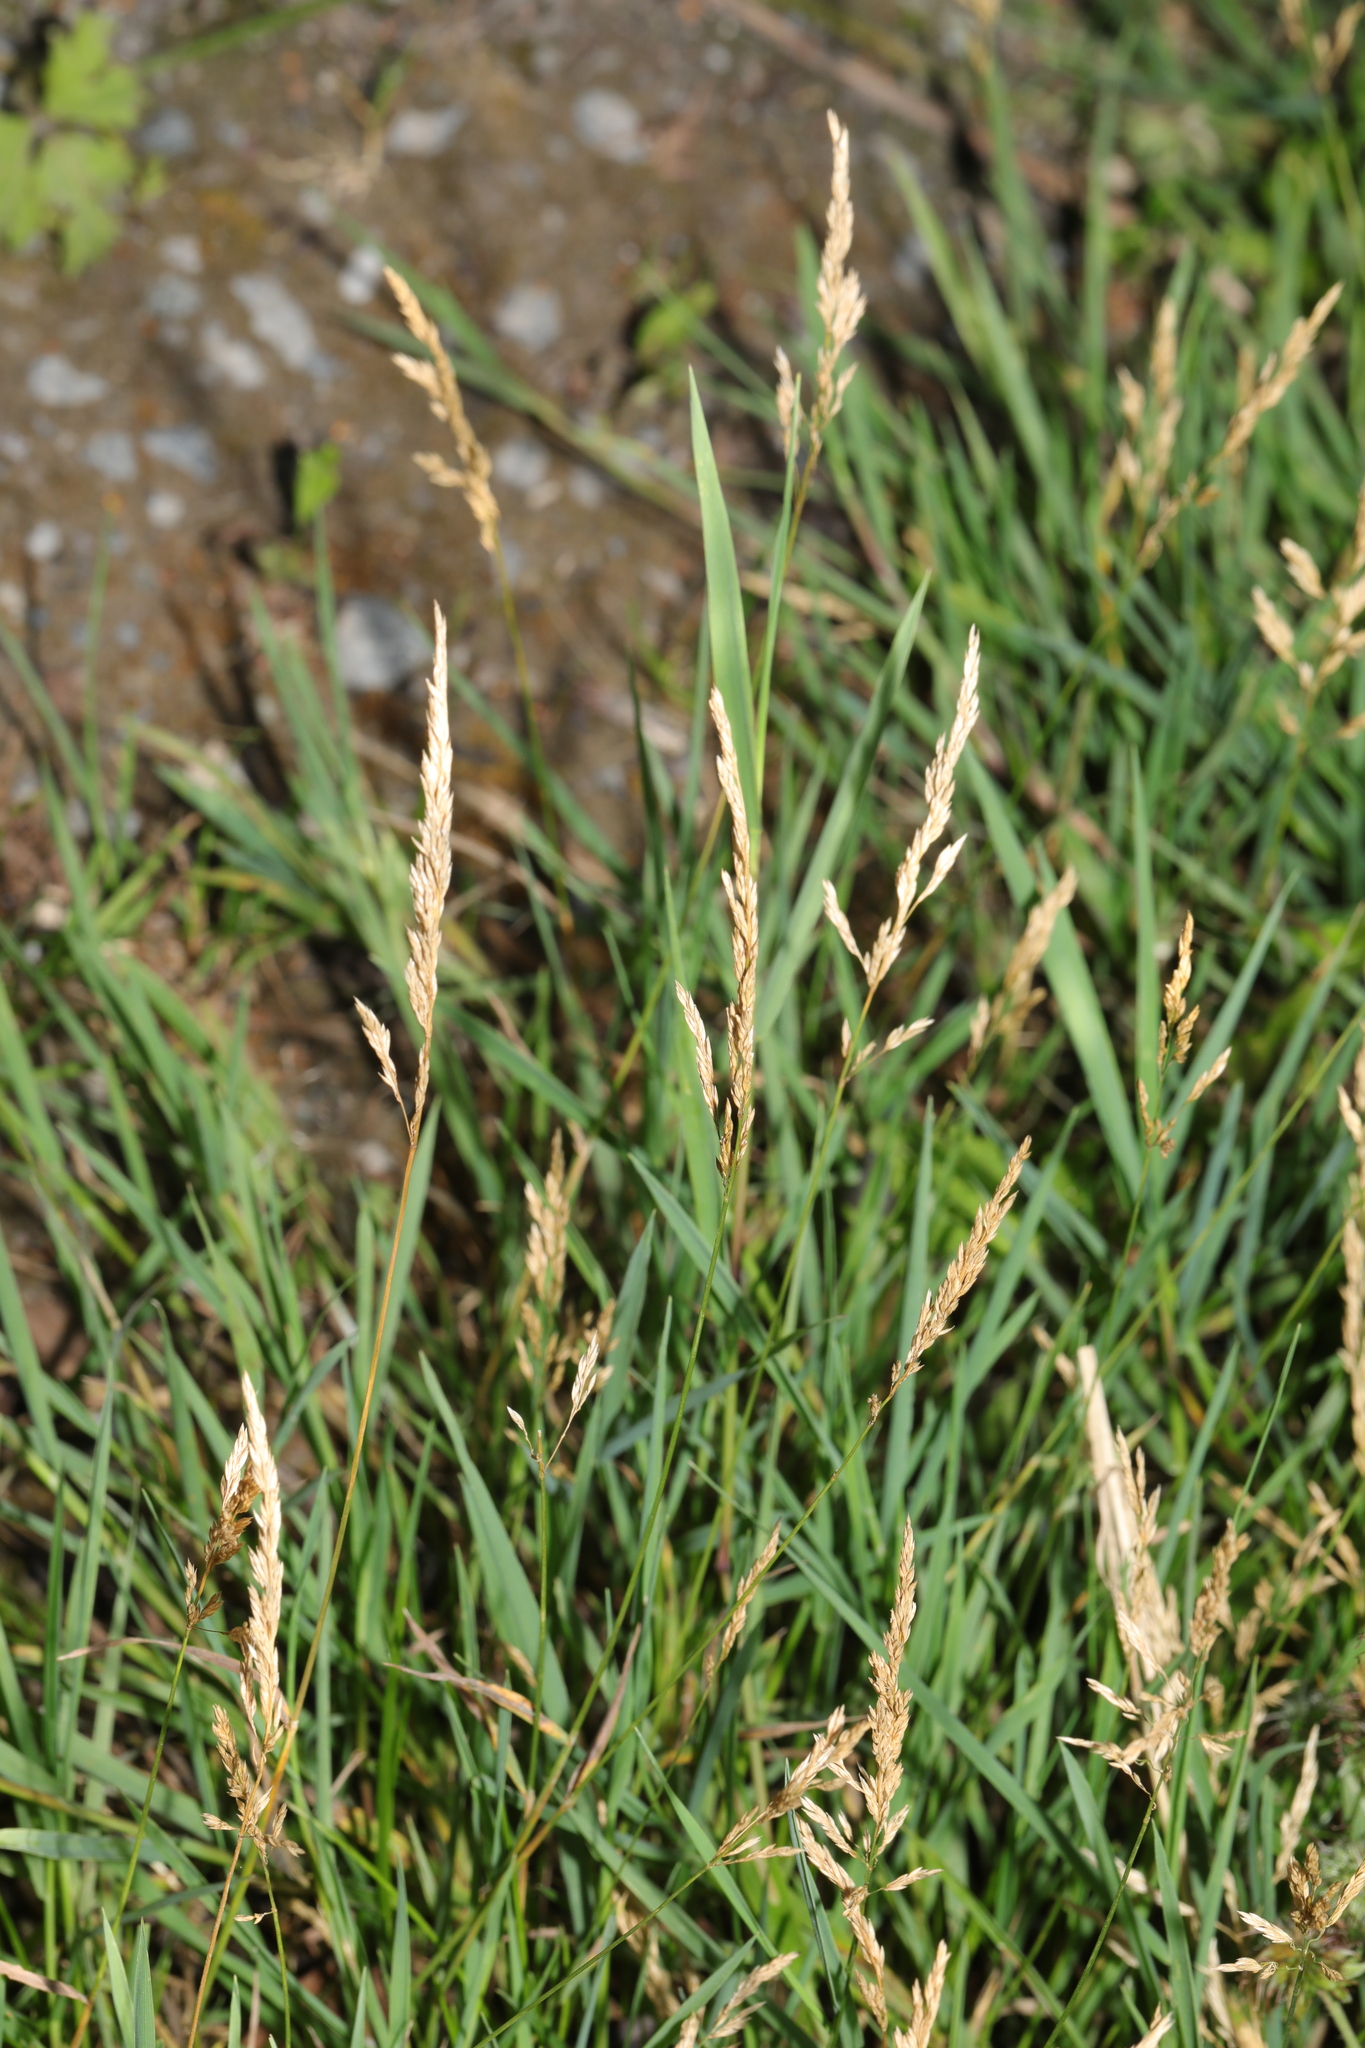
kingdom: Plantae
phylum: Tracheophyta
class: Liliopsida
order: Poales
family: Poaceae
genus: Agrostis
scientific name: Agrostis stolonifera
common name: Creeping bentgrass
